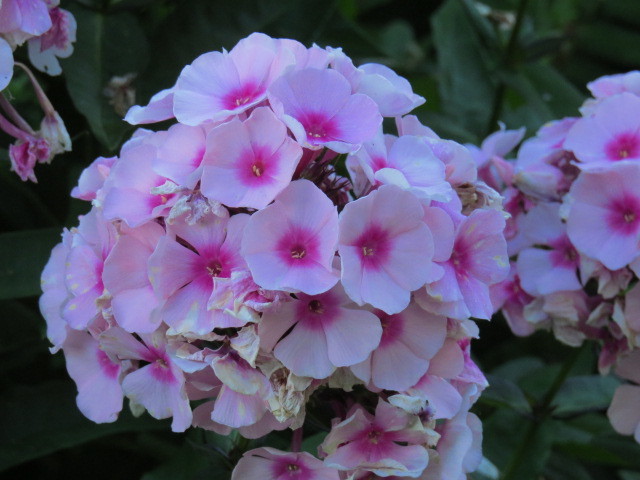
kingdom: Plantae
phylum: Tracheophyta
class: Magnoliopsida
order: Ericales
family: Polemoniaceae
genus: Phlox
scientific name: Phlox paniculata
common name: Fall phlox
